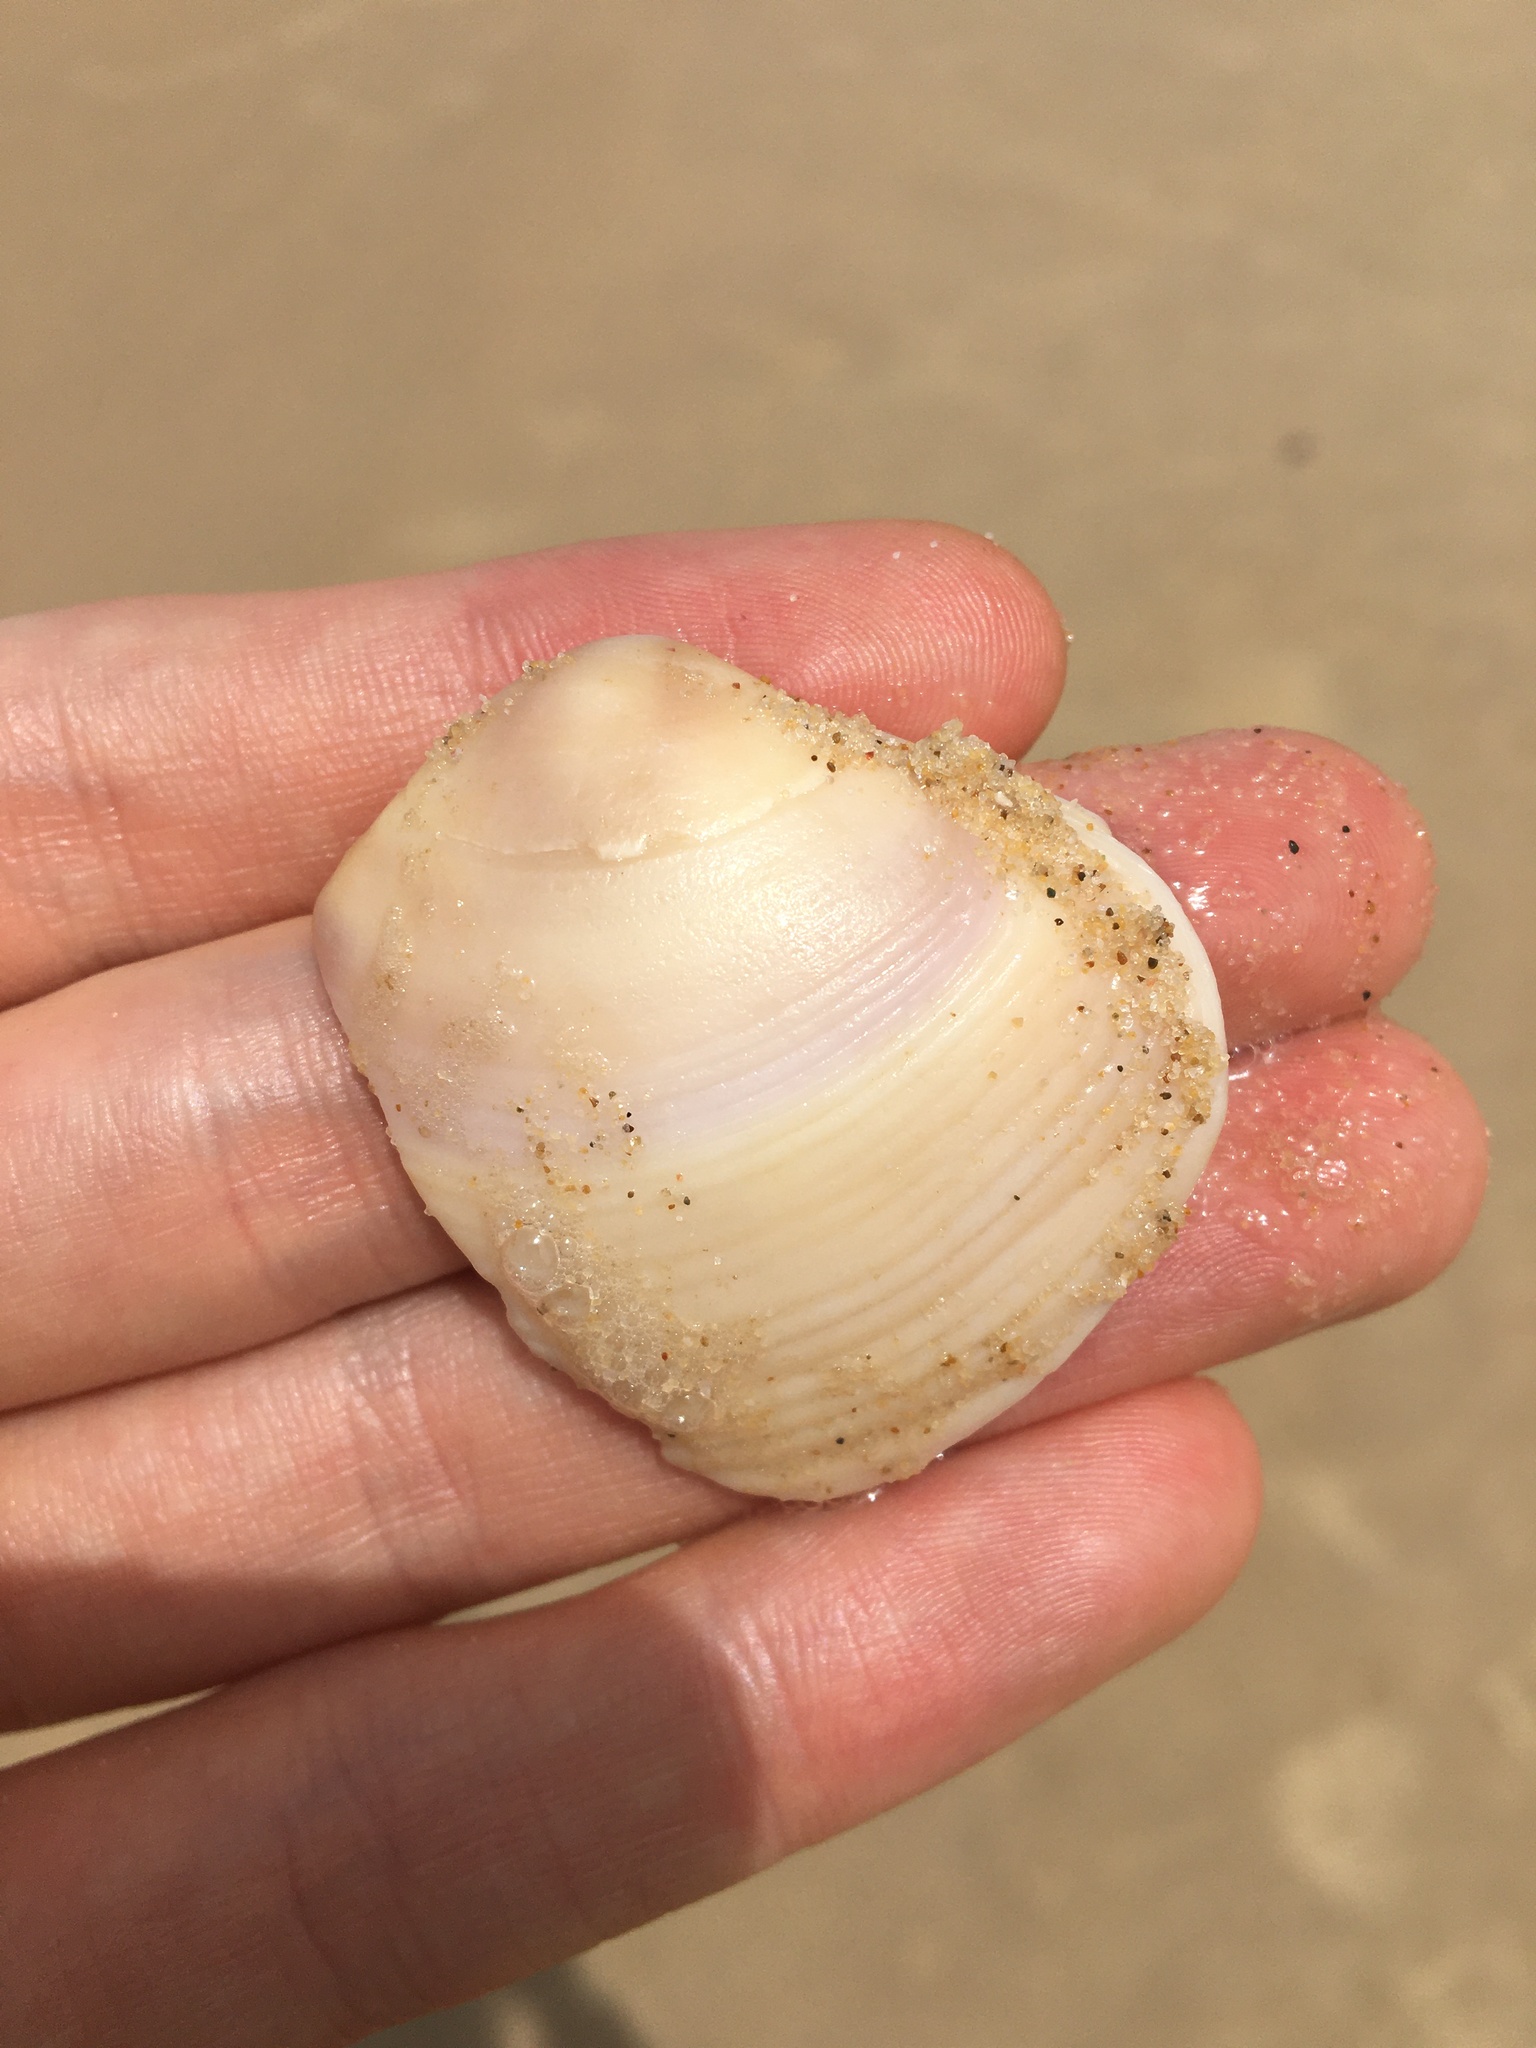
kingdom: Animalia
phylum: Mollusca
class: Bivalvia
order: Venerida
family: Mactridae
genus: Austromactra
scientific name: Austromactra rufescens
